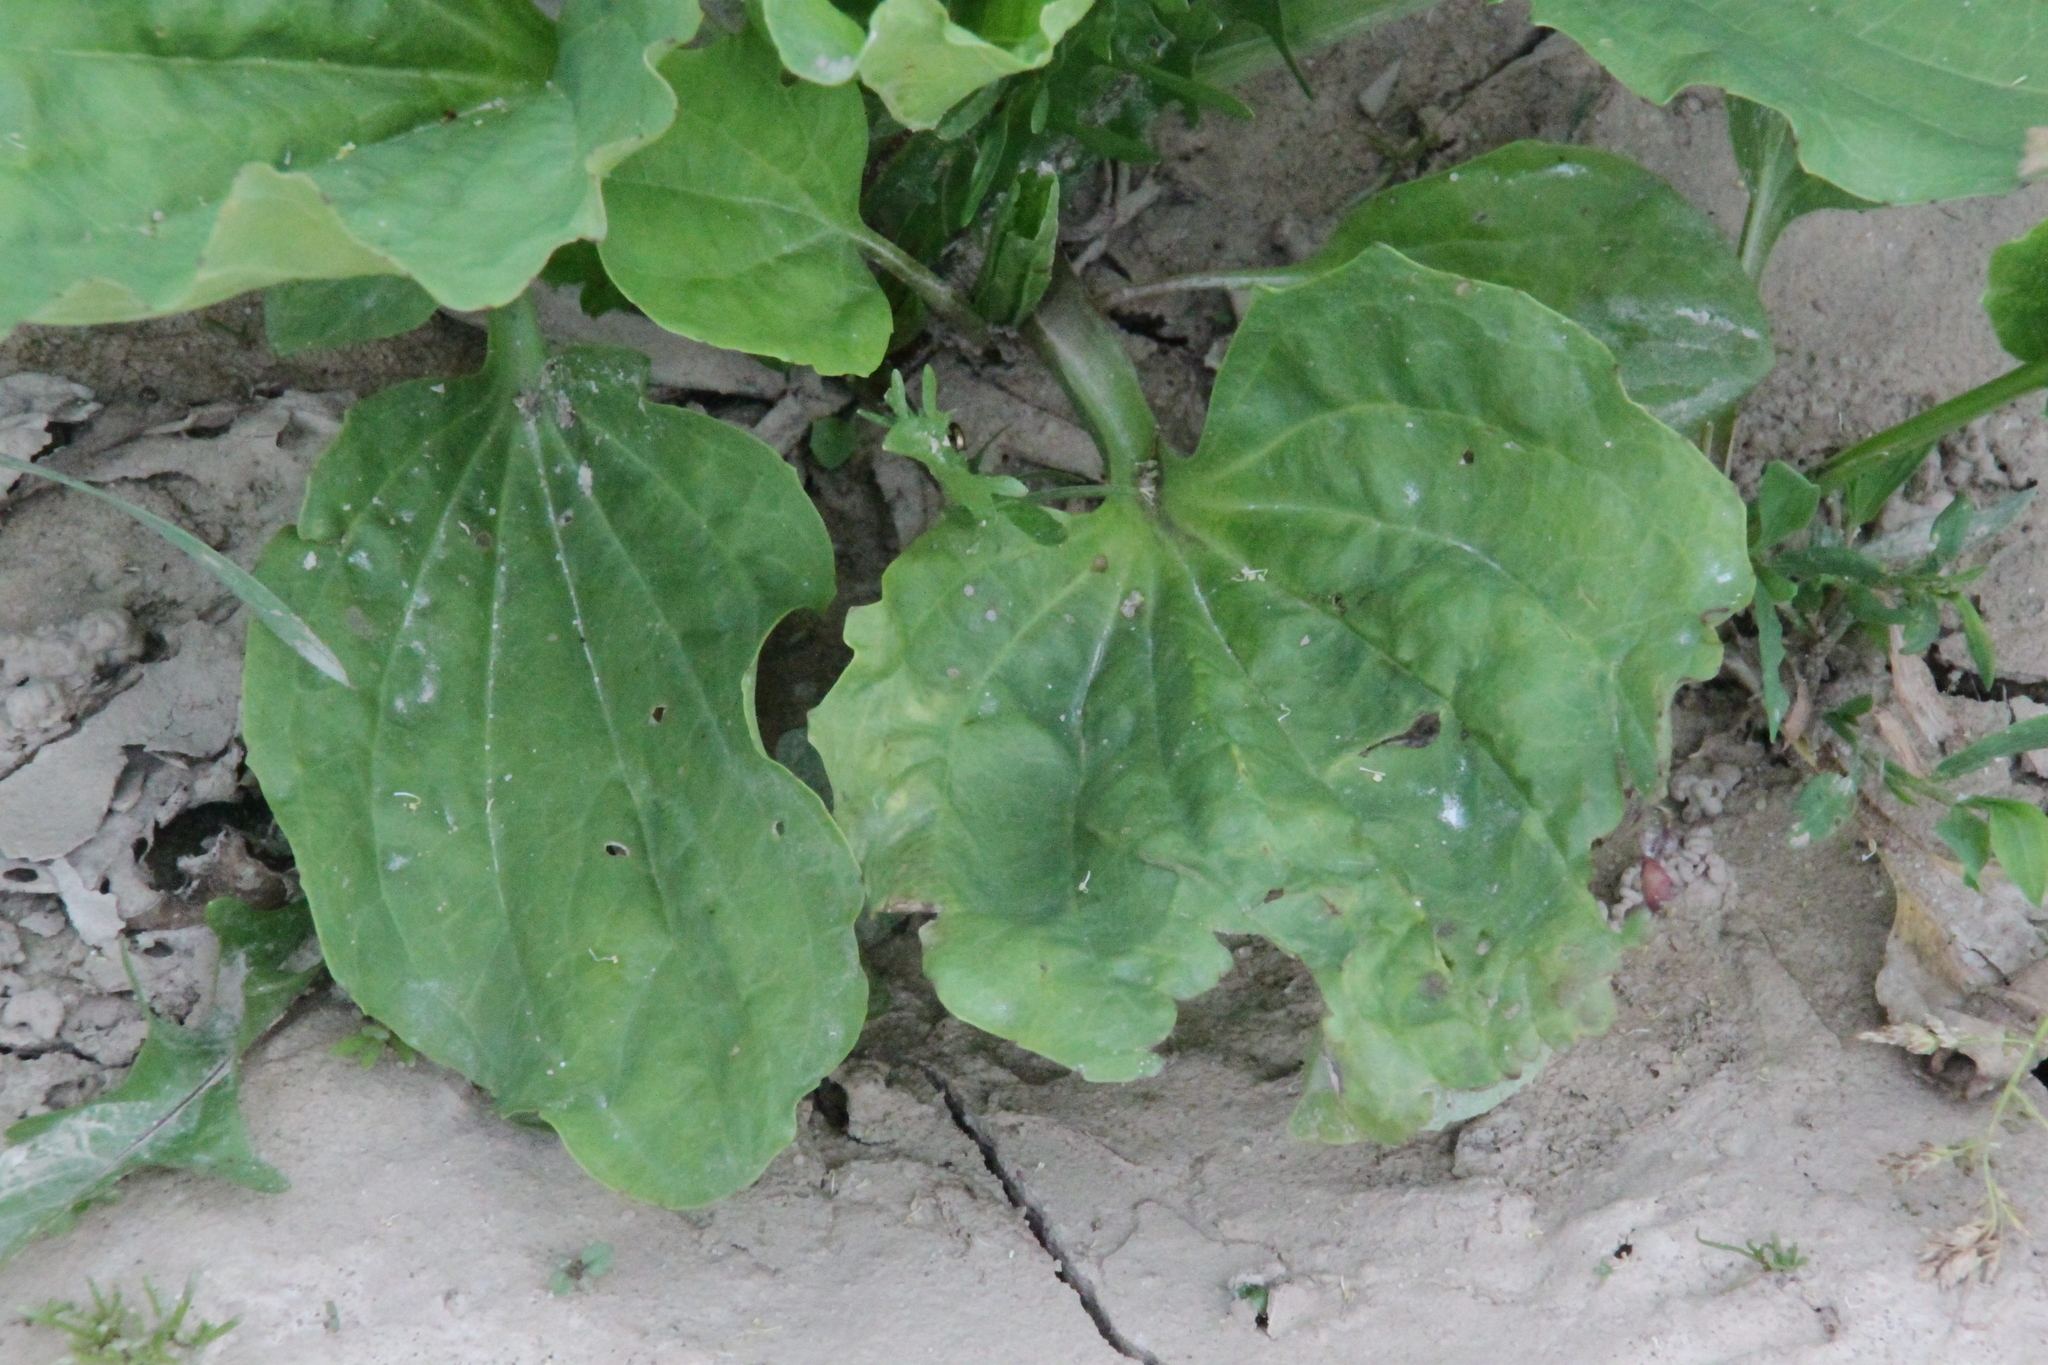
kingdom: Plantae
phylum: Tracheophyta
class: Magnoliopsida
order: Lamiales
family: Plantaginaceae
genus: Plantago
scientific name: Plantago major
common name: Common plantain
